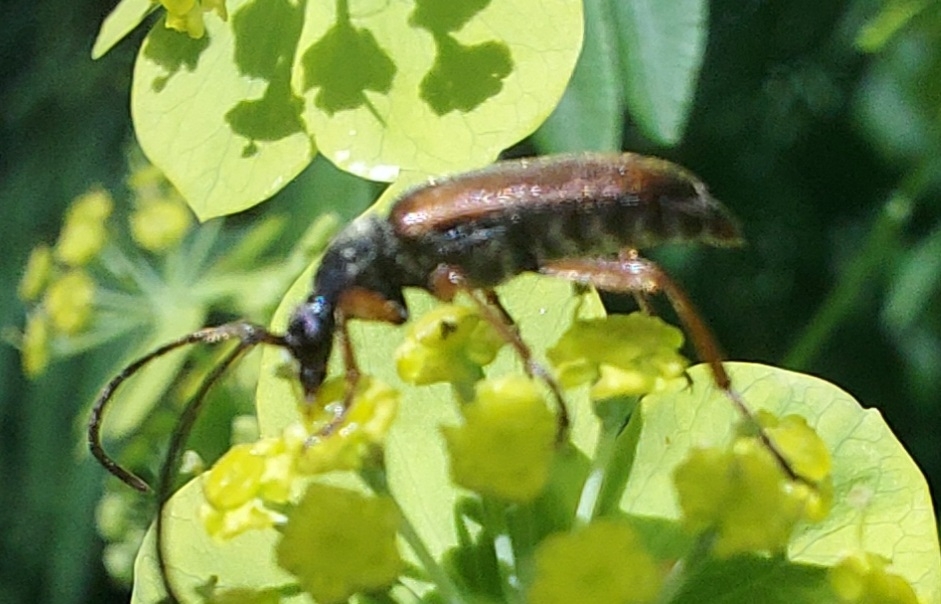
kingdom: Animalia
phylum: Arthropoda
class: Insecta
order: Coleoptera
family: Cerambycidae
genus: Alosterna
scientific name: Alosterna tabacicolor
